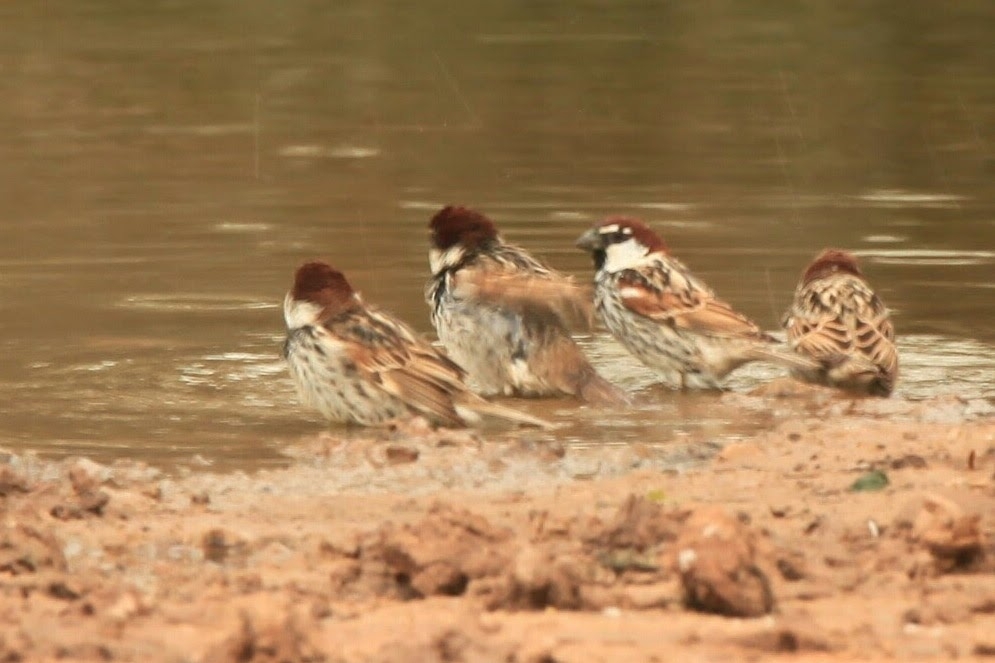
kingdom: Animalia
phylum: Chordata
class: Aves
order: Passeriformes
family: Passeridae
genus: Passer
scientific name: Passer hispaniolensis
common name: Spanish sparrow
